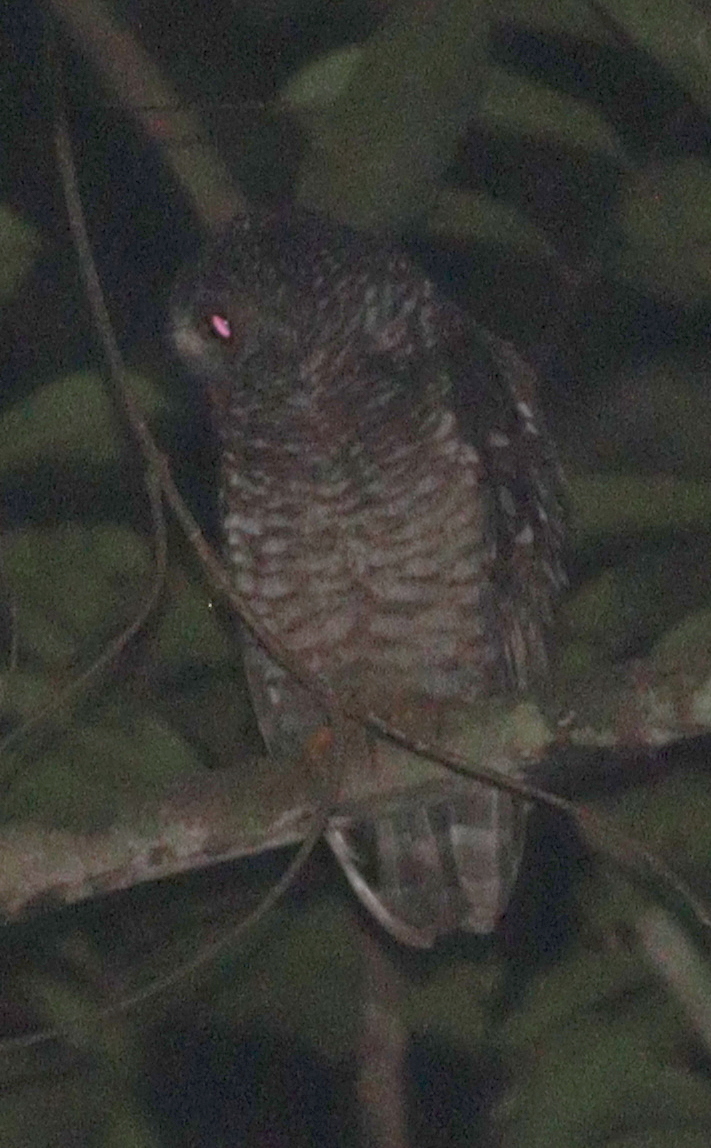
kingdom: Animalia
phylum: Chordata
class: Aves
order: Strigiformes
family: Strigidae
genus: Strix
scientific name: Strix woodfordii
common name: African wood owl
